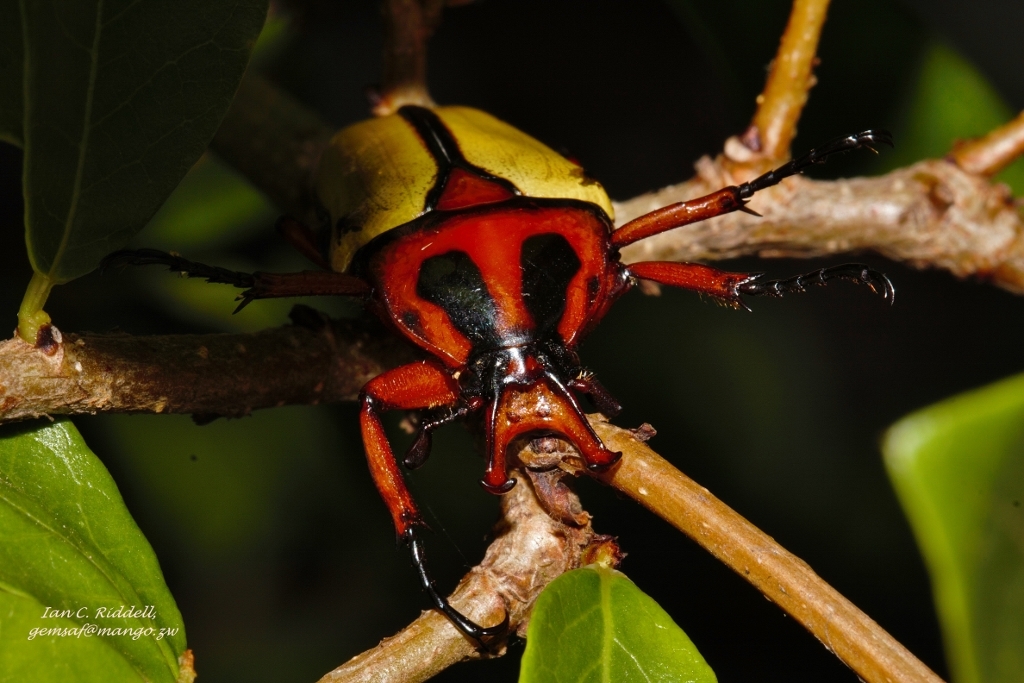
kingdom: Animalia
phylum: Arthropoda
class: Insecta
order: Coleoptera
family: Scarabaeidae
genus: Anisorrhina
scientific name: Anisorrhina algoensis
